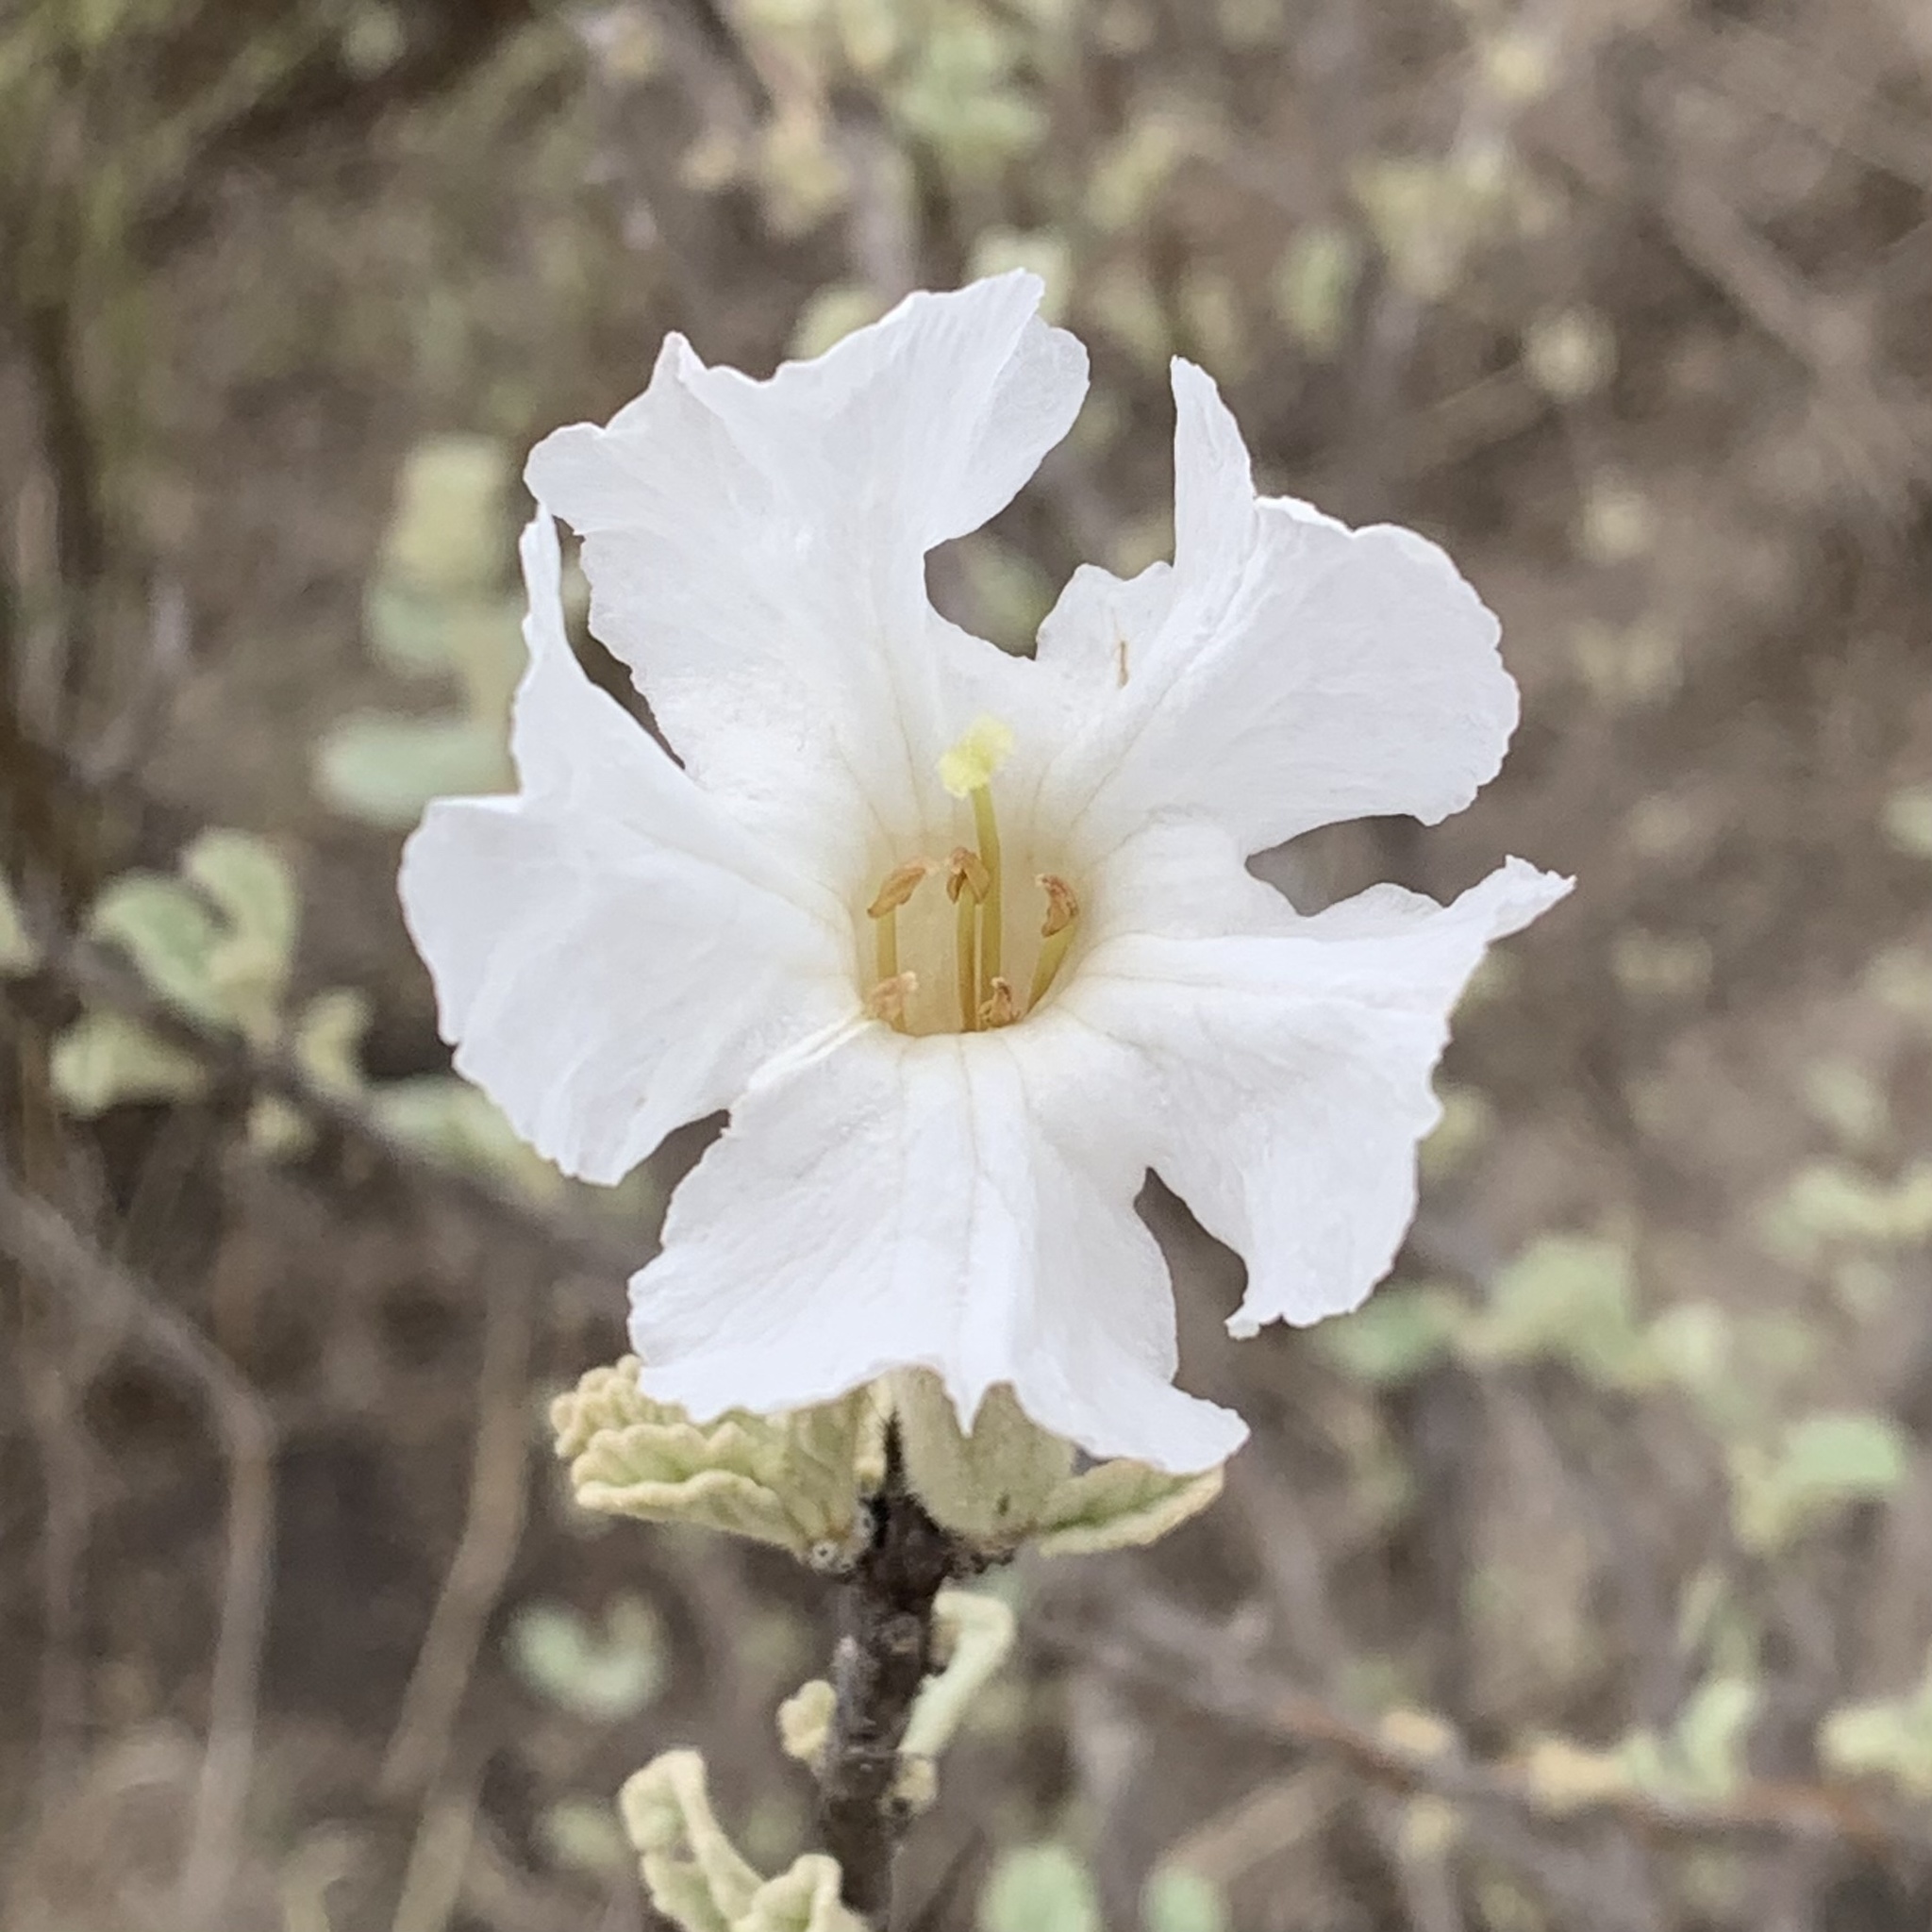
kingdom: Plantae
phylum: Tracheophyta
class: Magnoliopsida
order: Lamiales
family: Bignoniaceae
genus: Catophractes
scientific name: Catophractes alexandri
